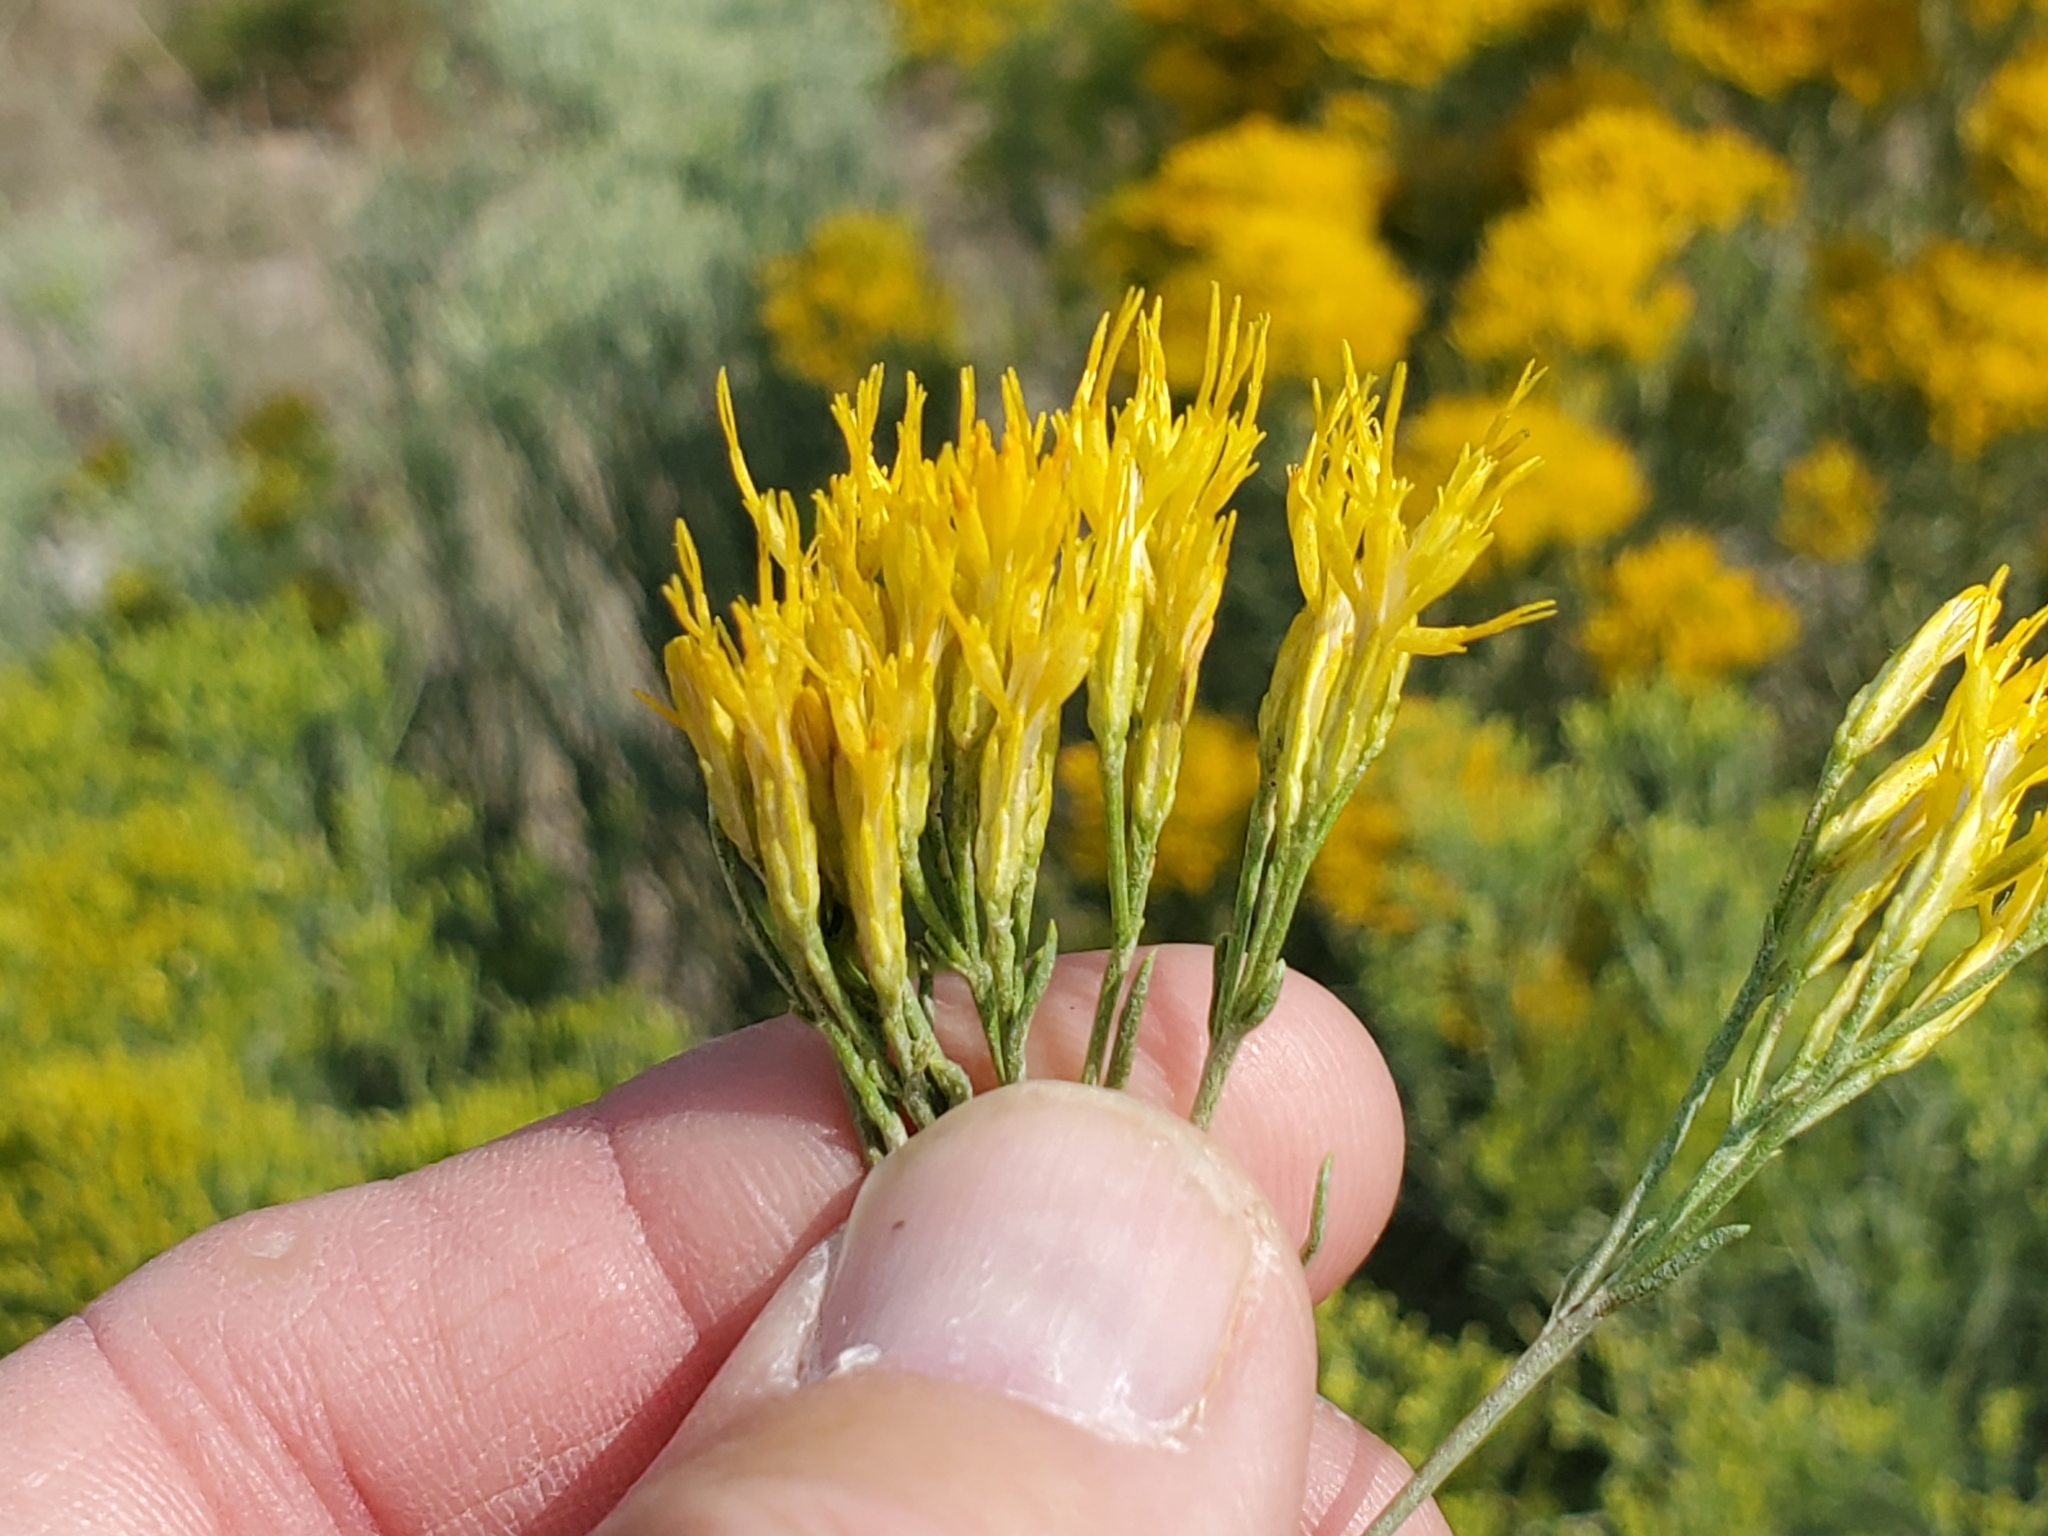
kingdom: Plantae
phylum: Tracheophyta
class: Magnoliopsida
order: Asterales
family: Asteraceae
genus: Ericameria
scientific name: Ericameria nauseosa
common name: Rubber rabbitbrush
